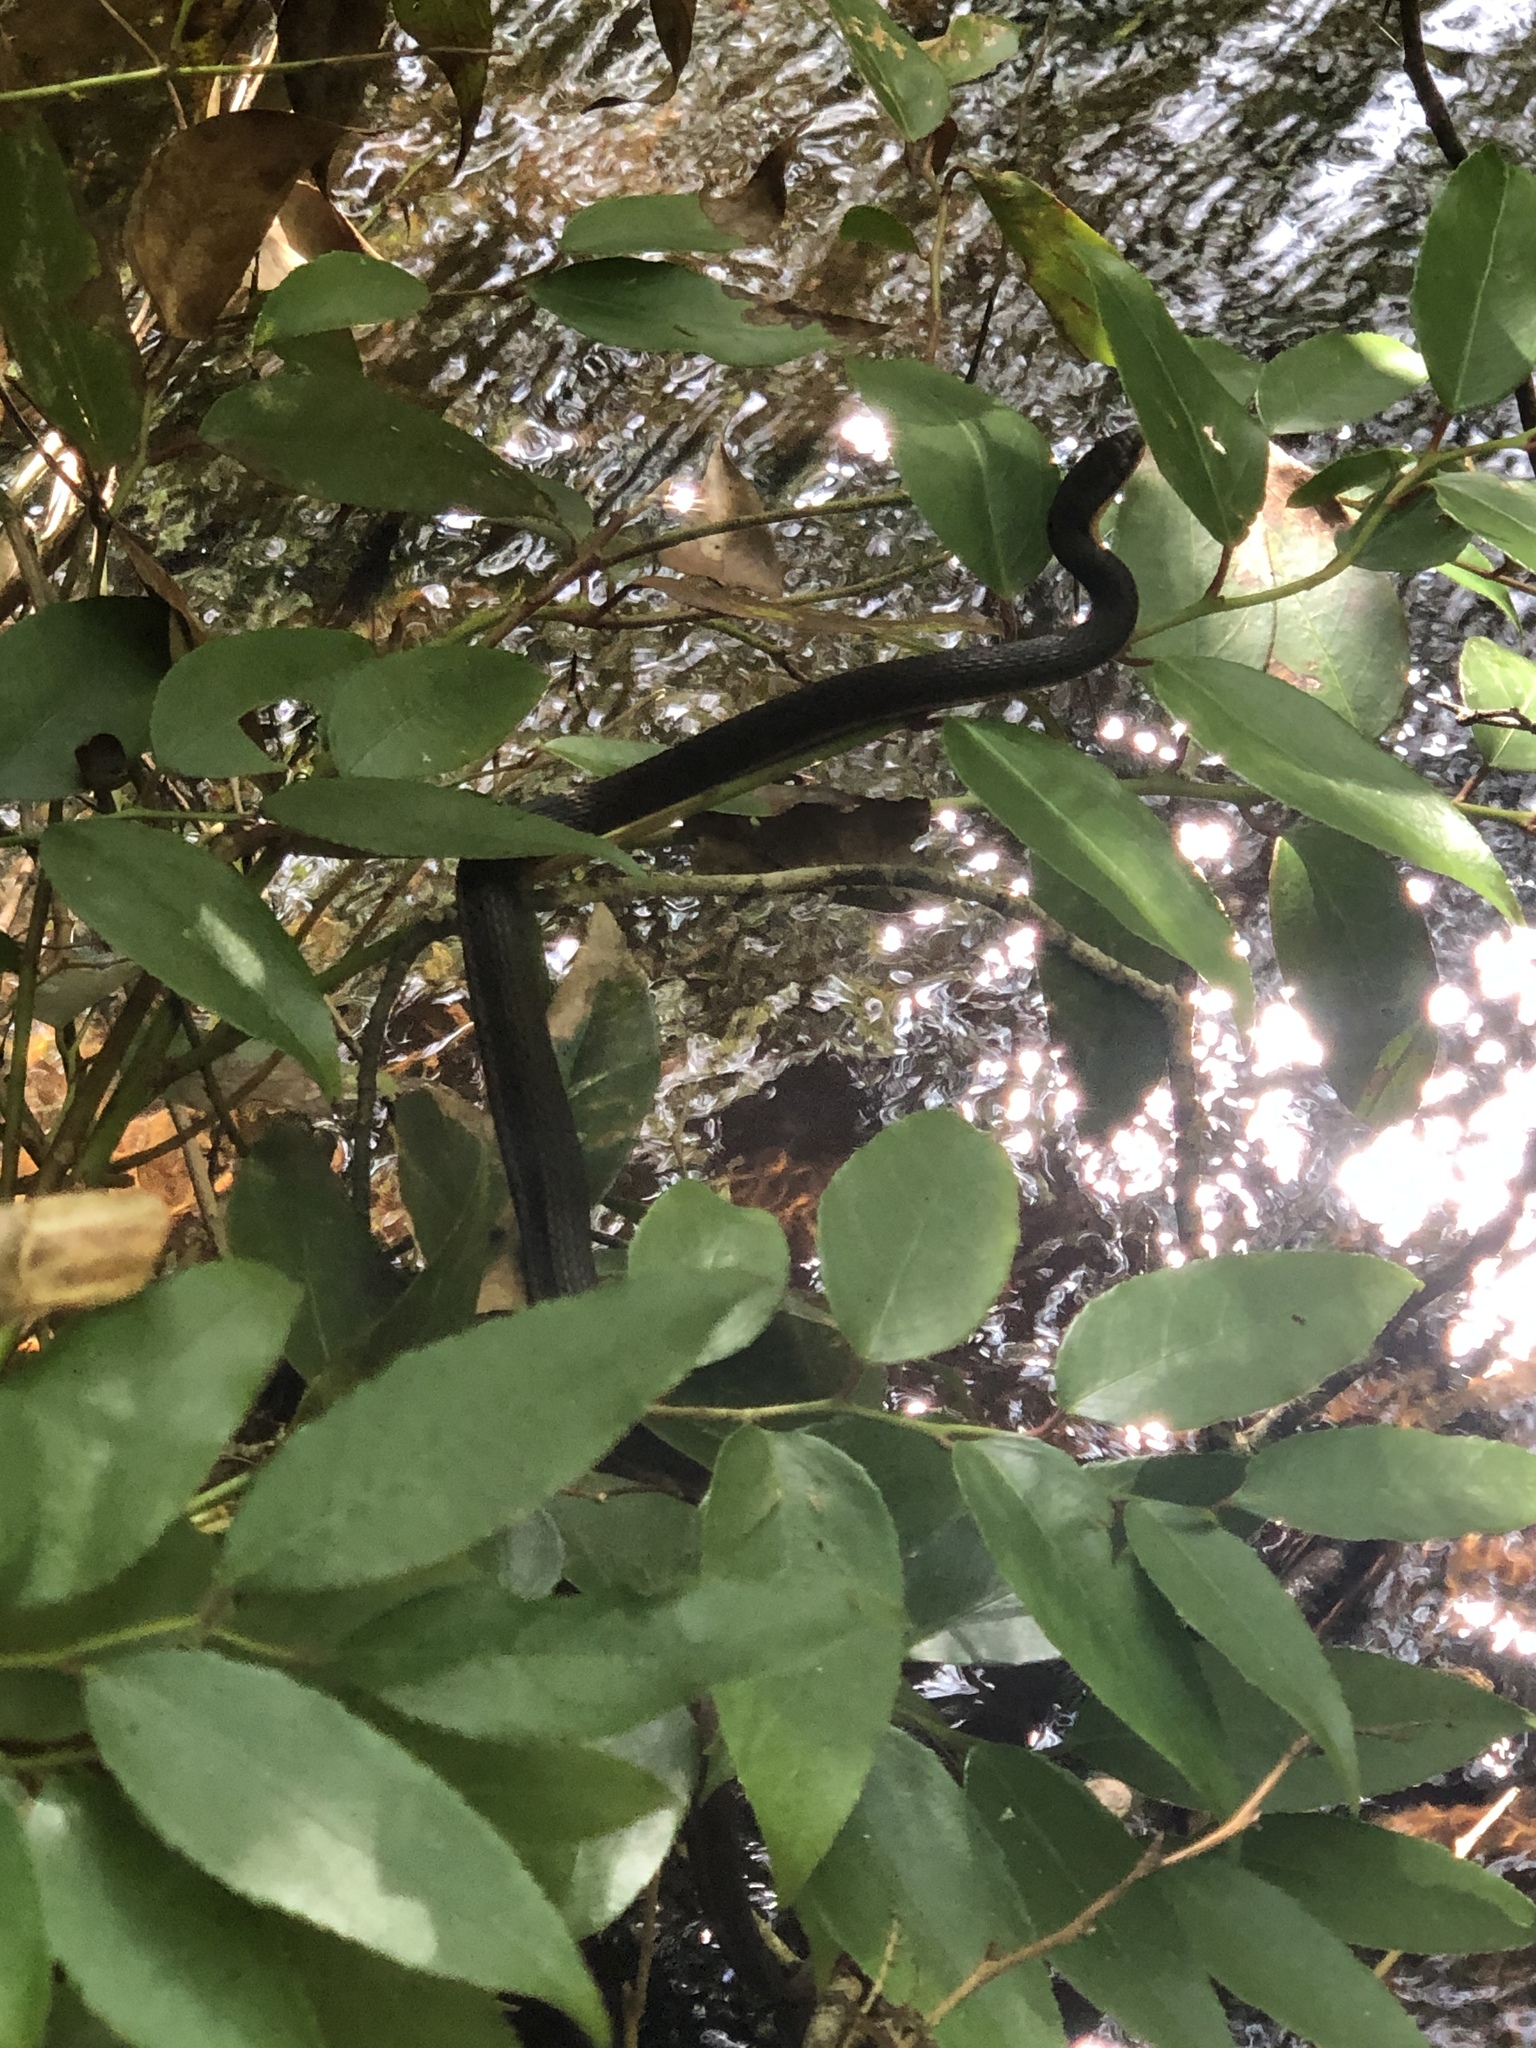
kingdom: Animalia
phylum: Chordata
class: Squamata
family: Colubridae
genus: Regina
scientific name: Regina septemvittata
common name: Queen snake
